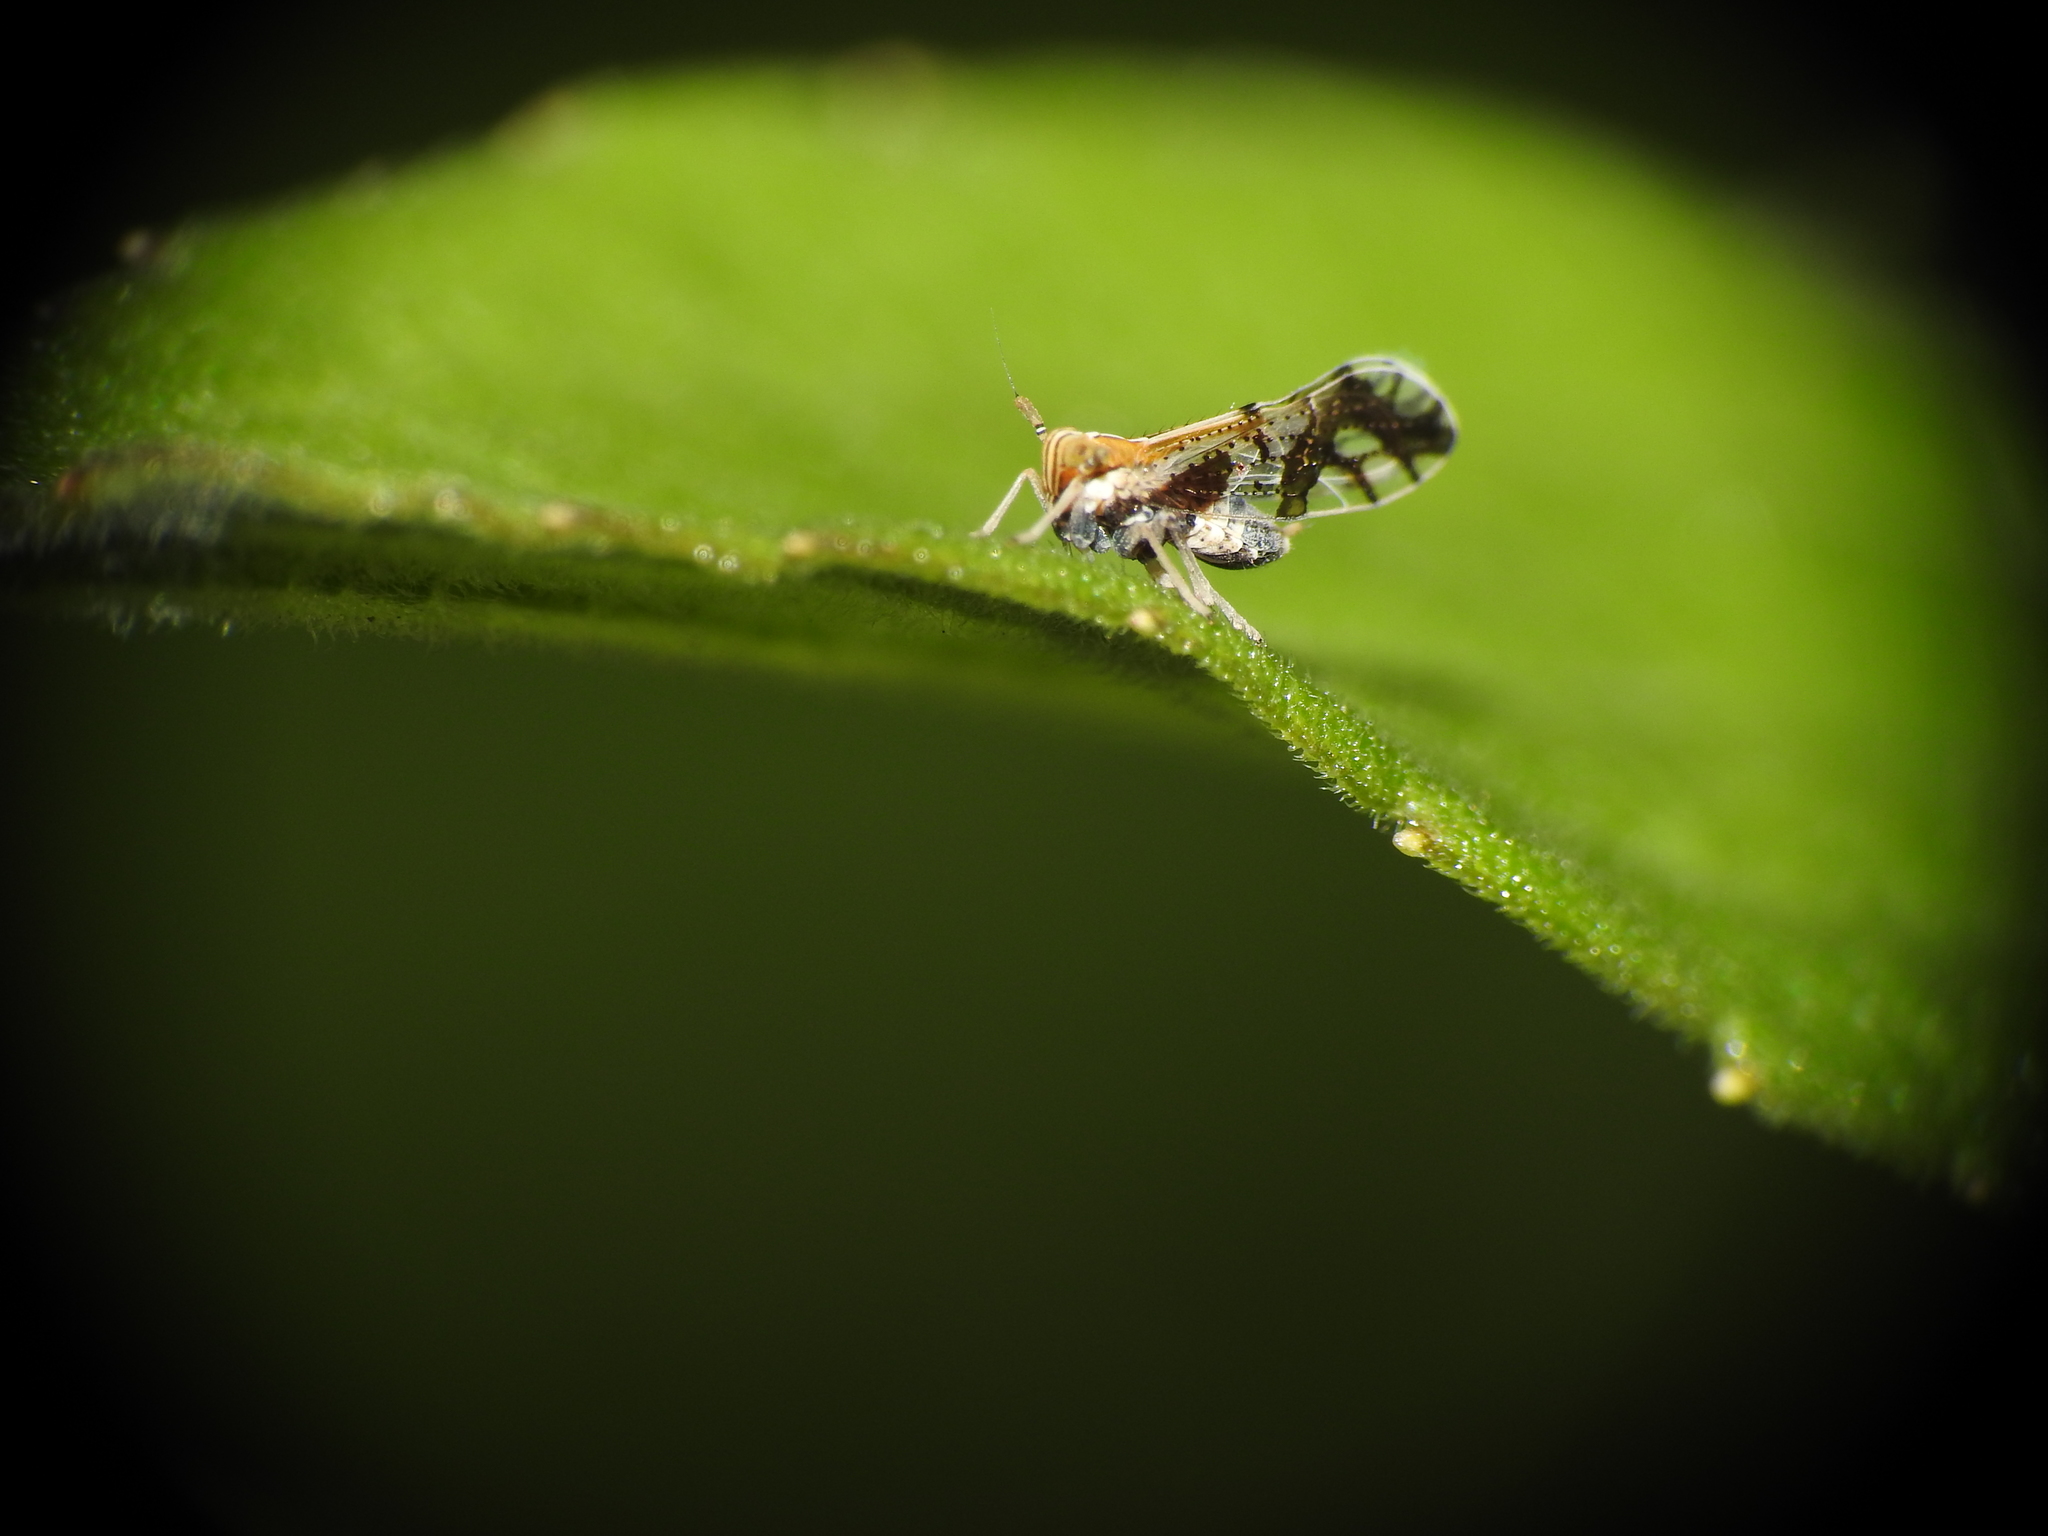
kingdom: Animalia
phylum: Arthropoda
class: Insecta
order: Hemiptera
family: Delphacidae
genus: Liburniella
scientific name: Liburniella ornata
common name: Ornate planthopper
